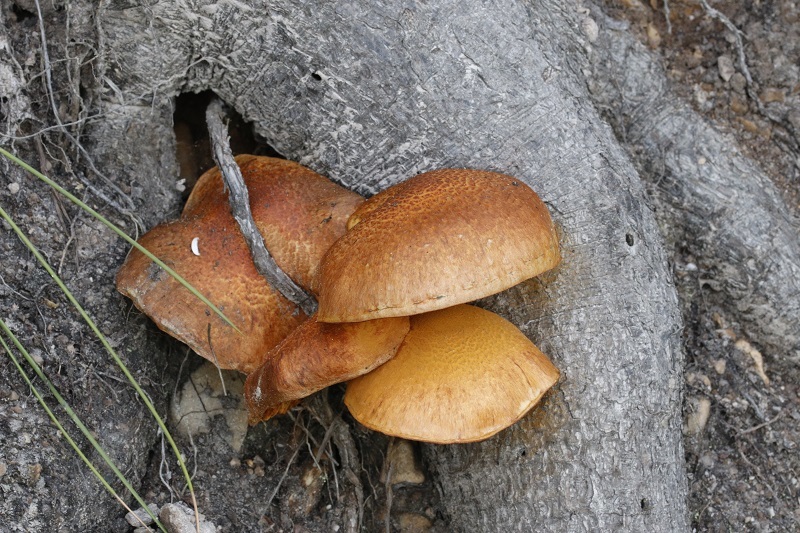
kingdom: Fungi
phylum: Basidiomycota
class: Agaricomycetes
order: Agaricales
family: Hymenogastraceae
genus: Gymnopilus
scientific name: Gymnopilus junonius
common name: Spectacular rustgill
